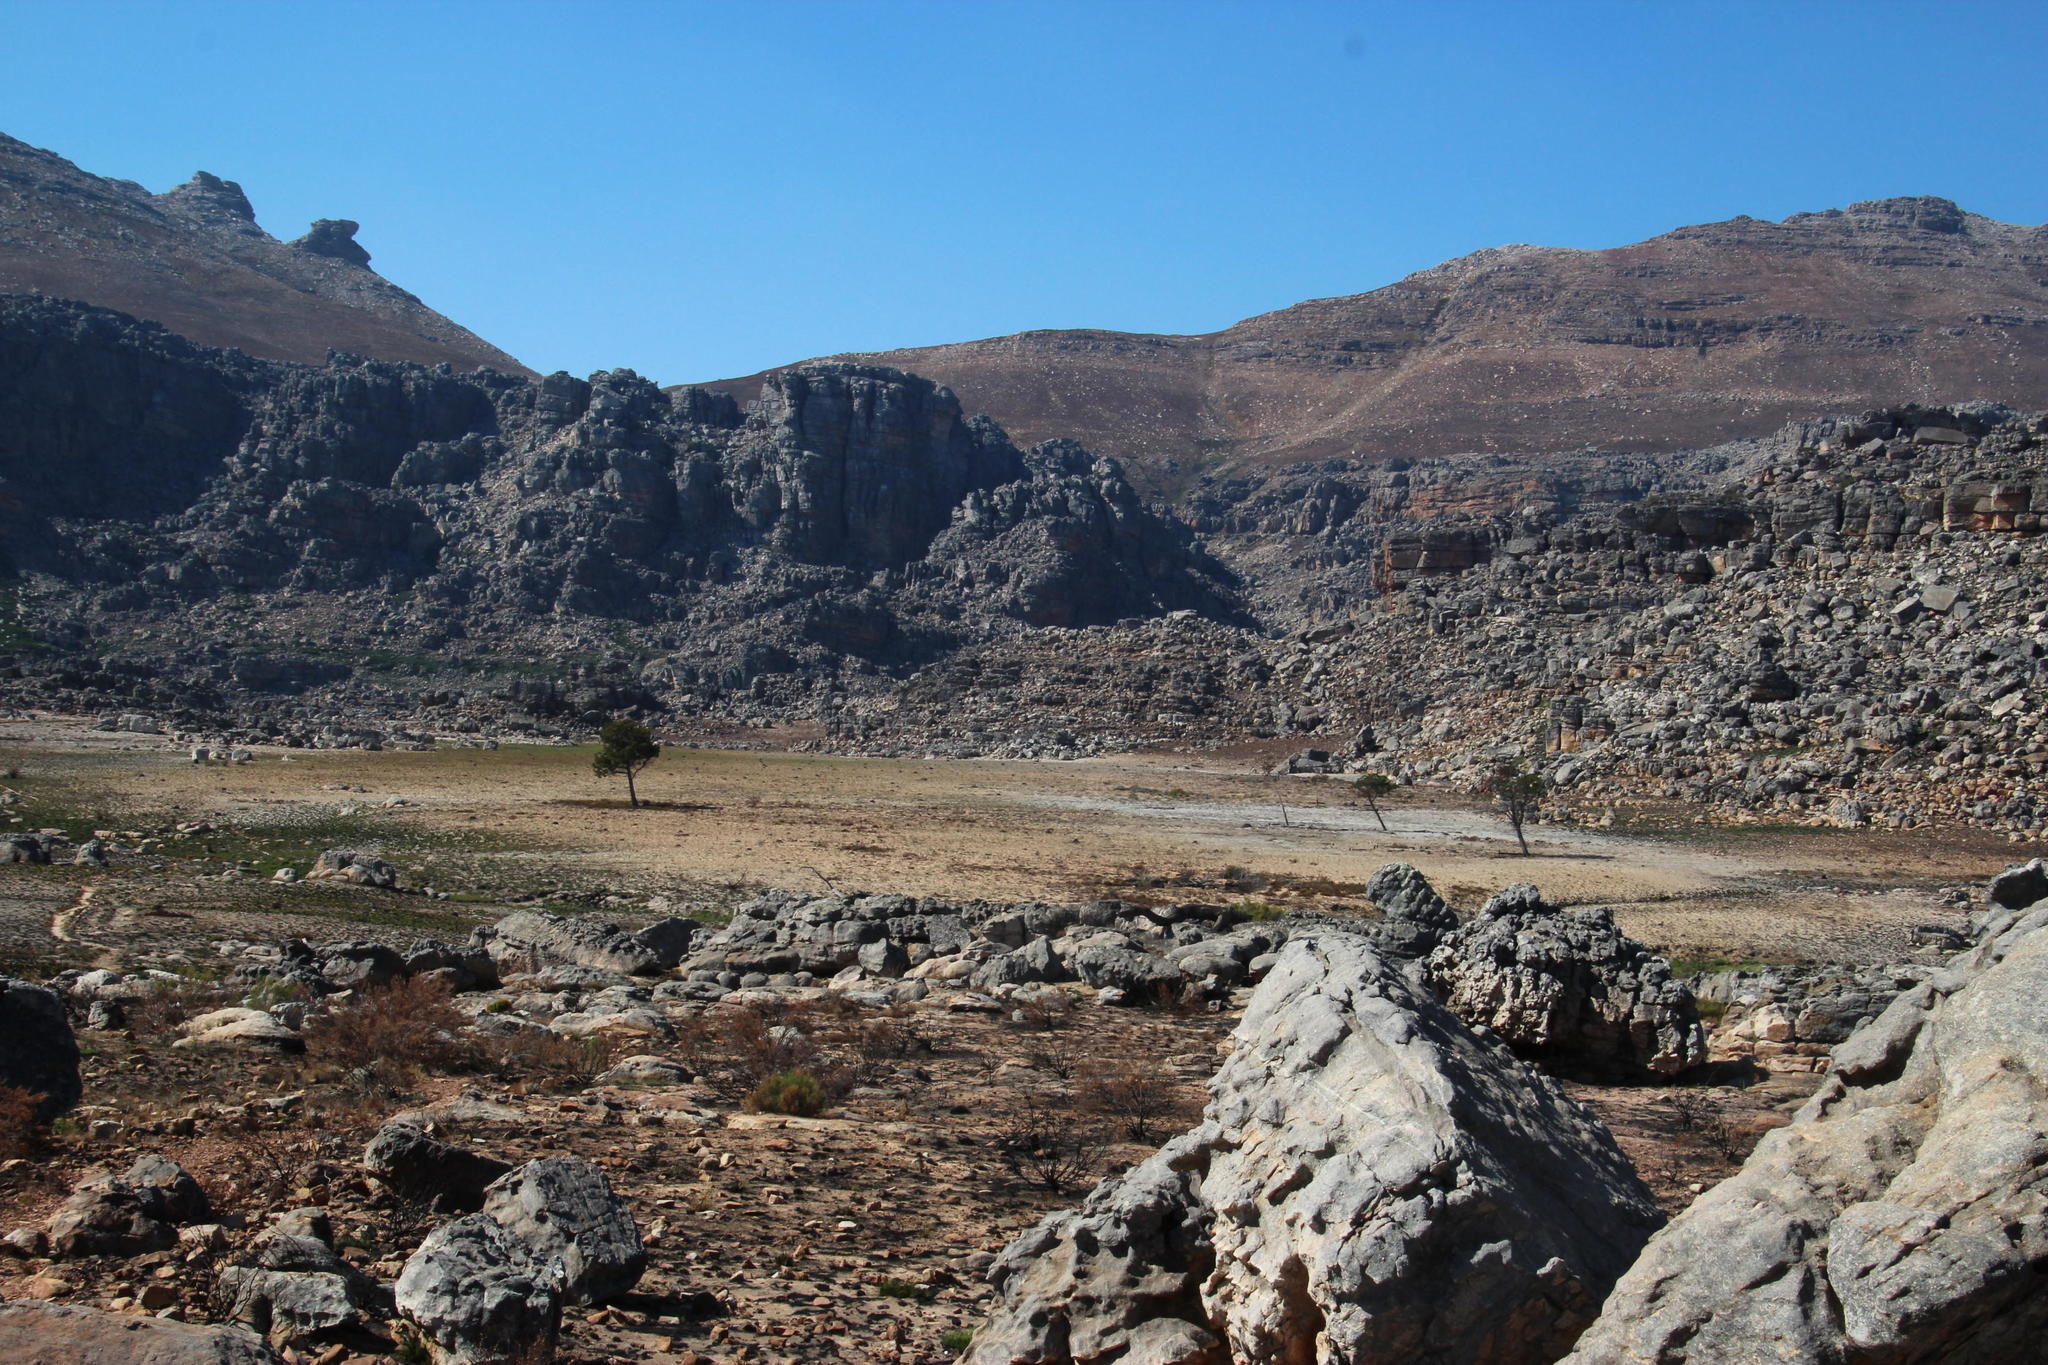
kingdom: Plantae
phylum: Tracheophyta
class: Pinopsida
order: Pinales
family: Cupressaceae
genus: Widdringtonia
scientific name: Widdringtonia nodiflora
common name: Cape cypress
